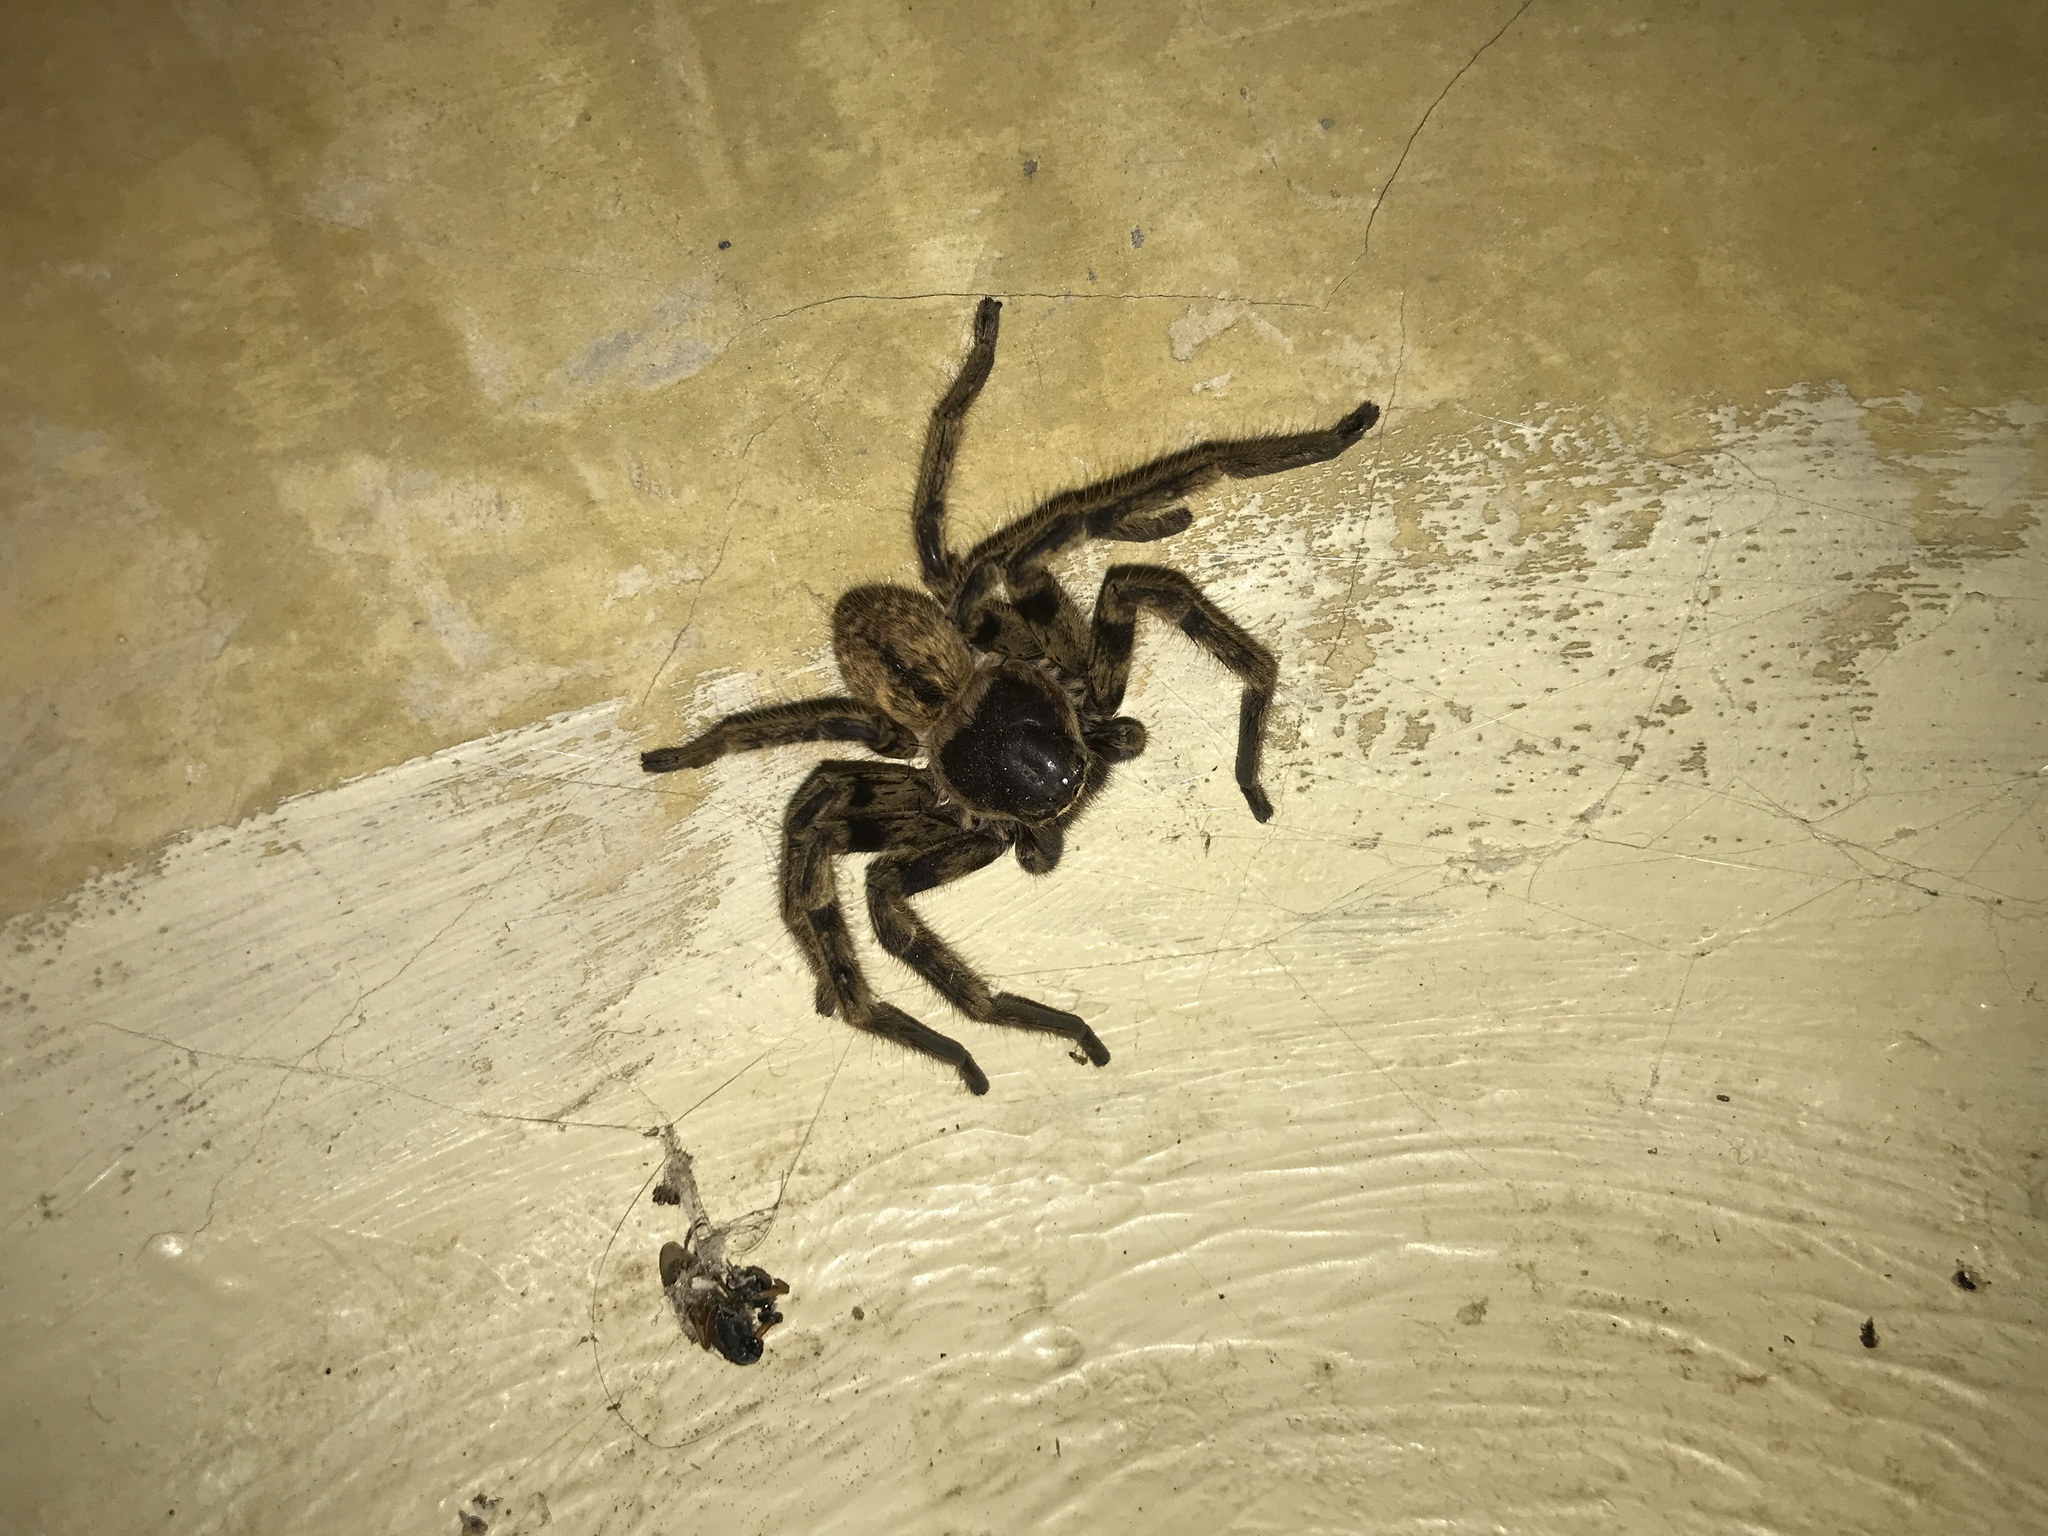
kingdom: Animalia
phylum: Arthropoda
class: Arachnida
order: Araneae
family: Sparassidae
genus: Polybetes
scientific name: Polybetes pythagoricus
